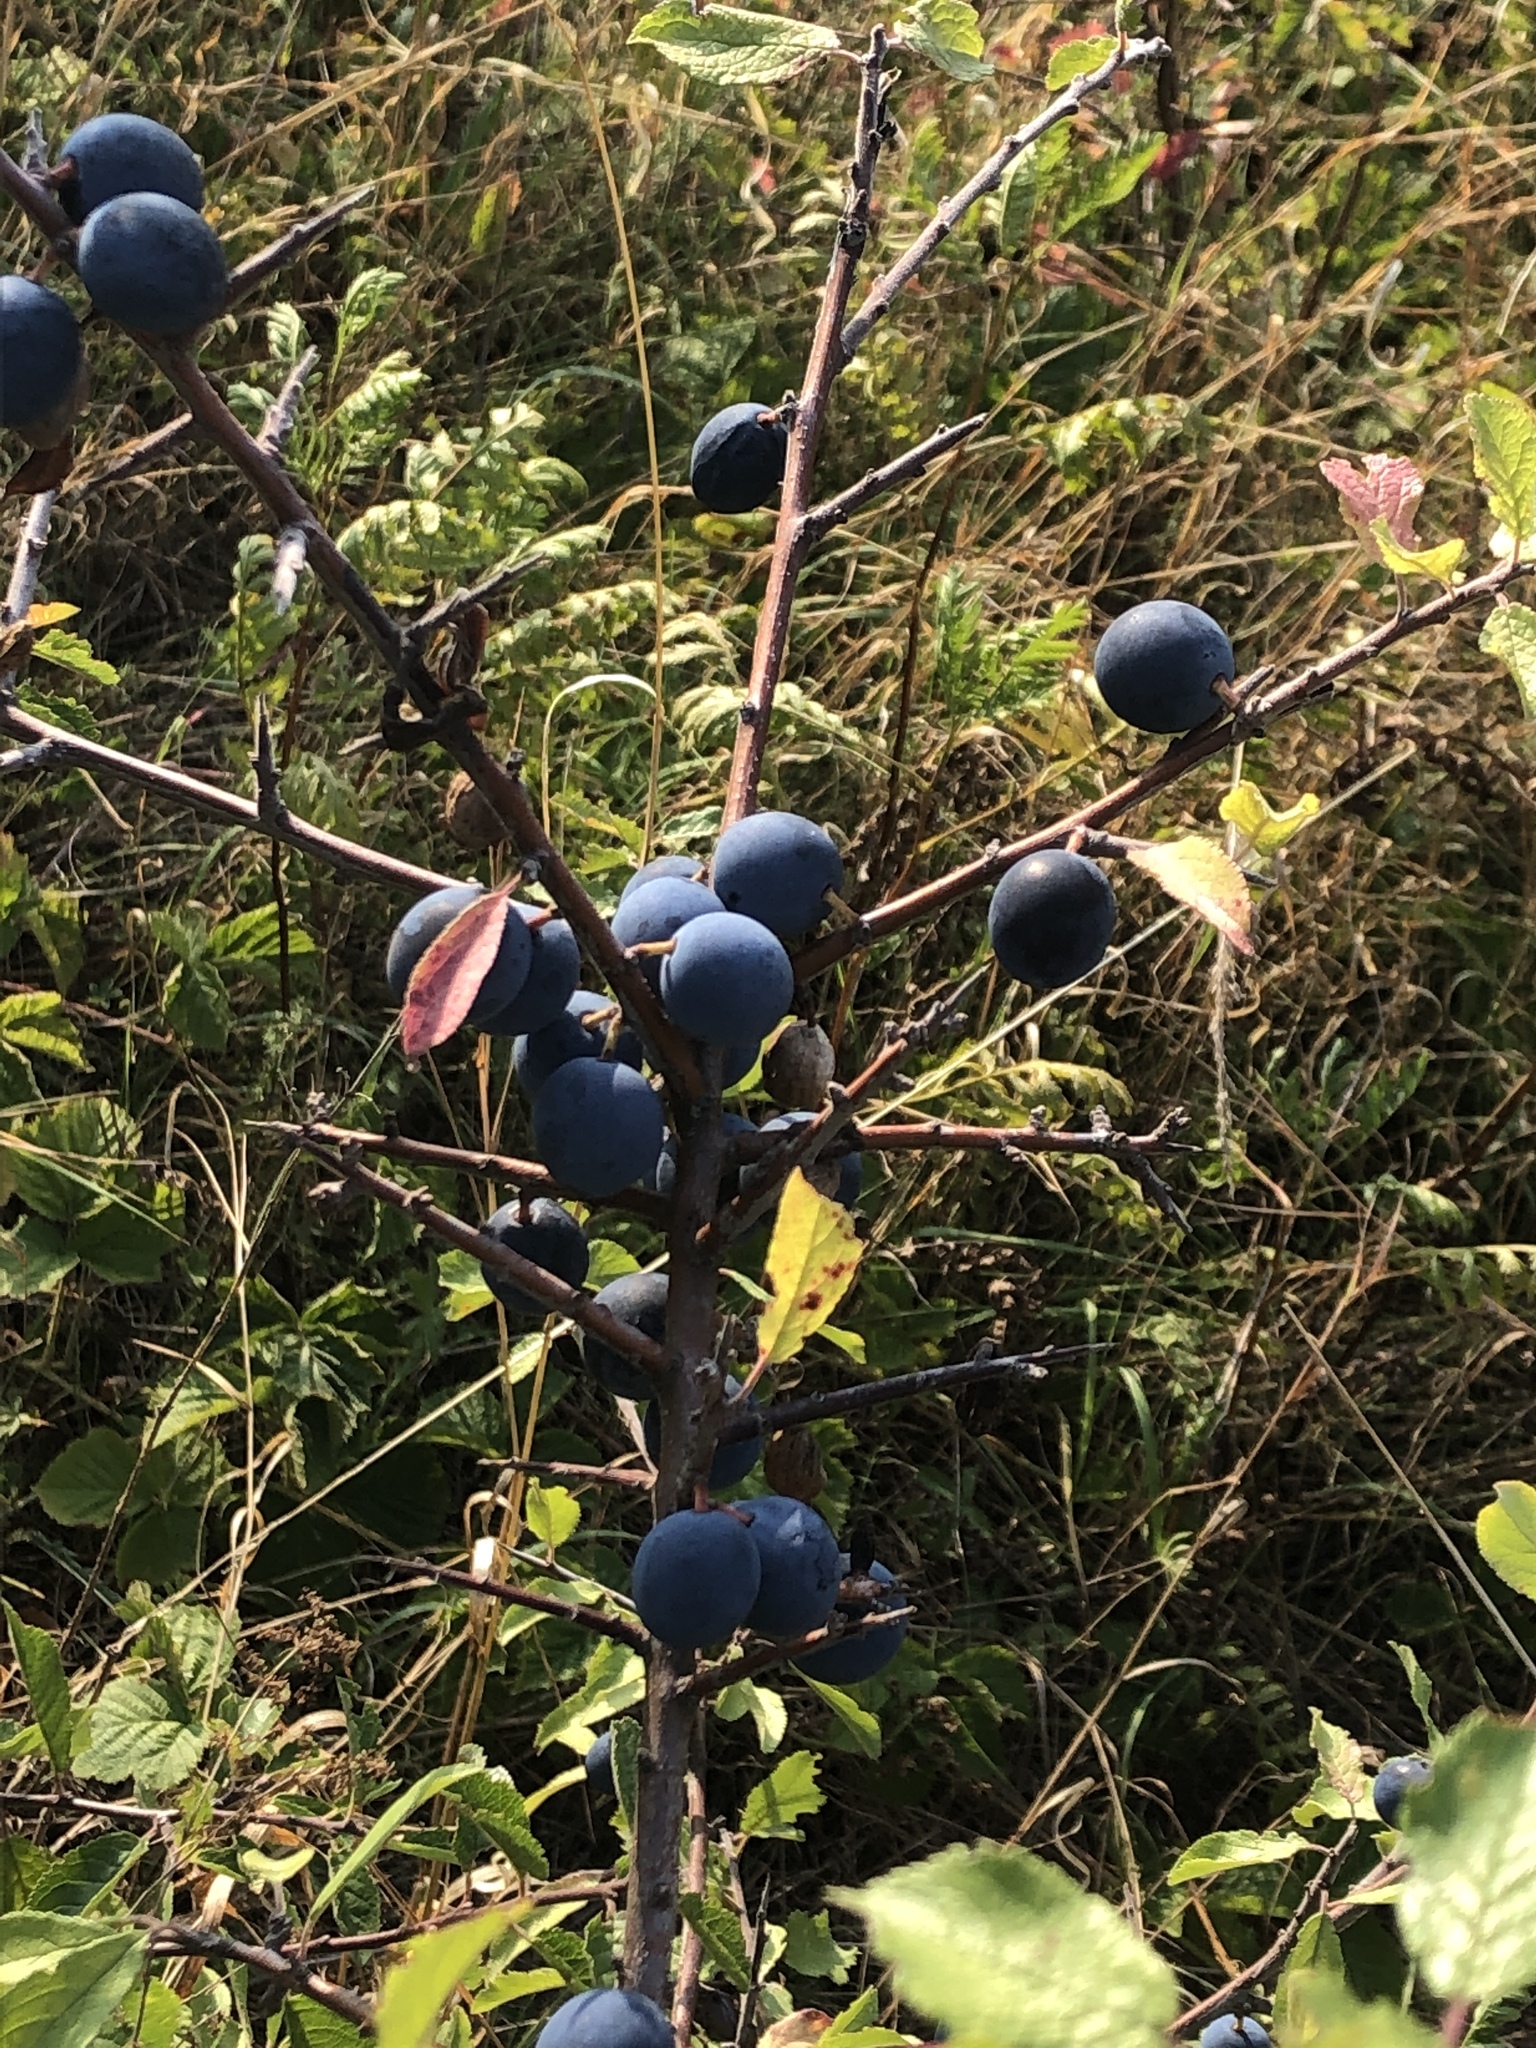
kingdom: Plantae
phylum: Tracheophyta
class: Magnoliopsida
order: Rosales
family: Rosaceae
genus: Prunus
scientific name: Prunus spinosa
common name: Blackthorn
